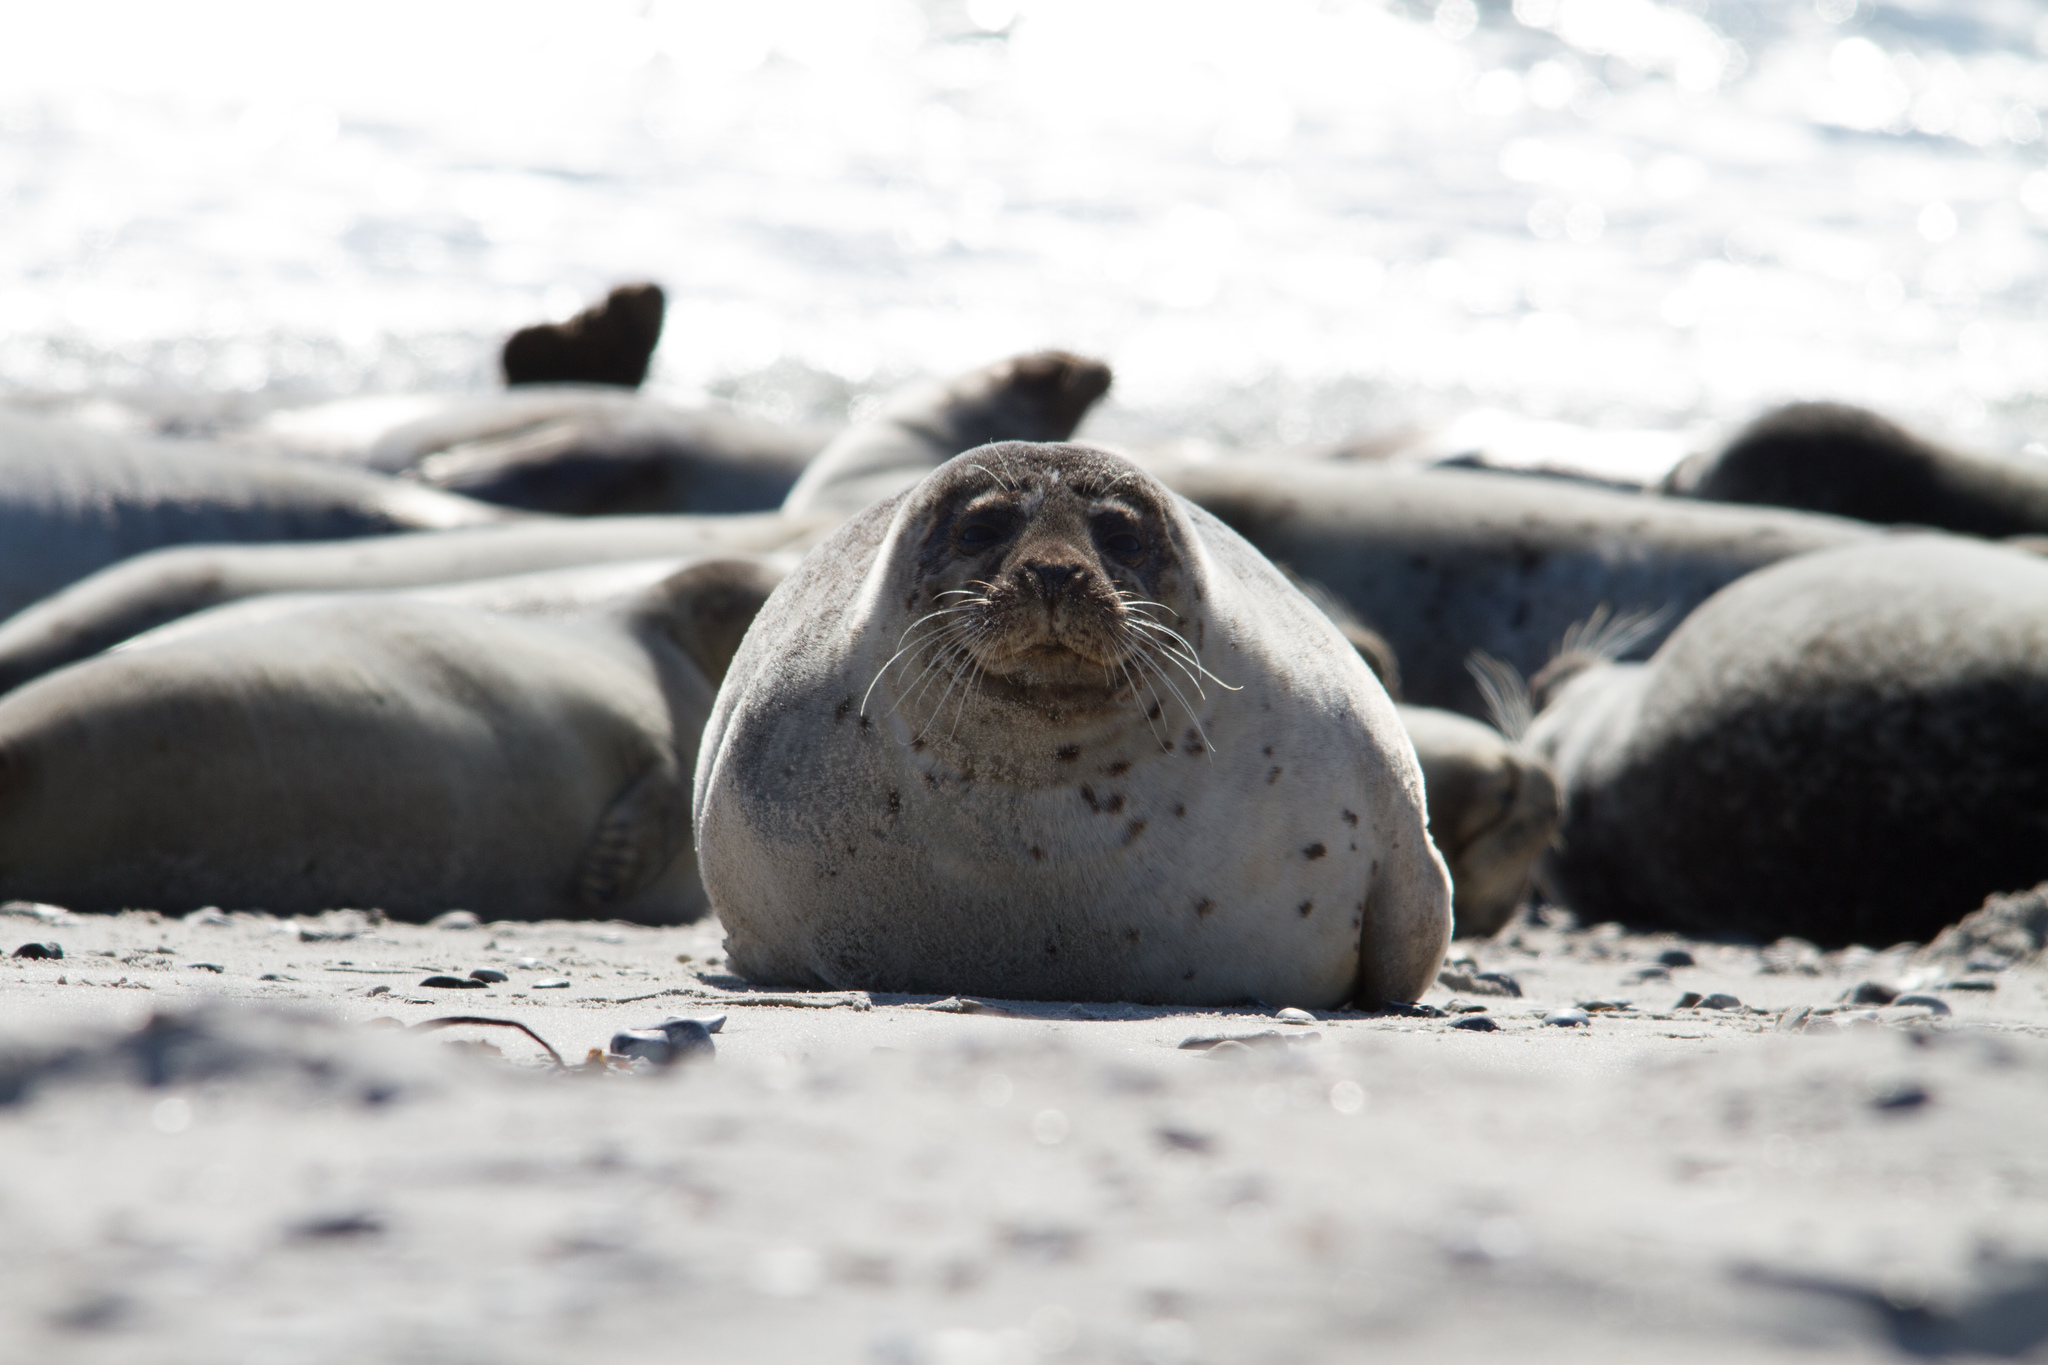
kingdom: Animalia
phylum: Chordata
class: Mammalia
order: Carnivora
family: Phocidae
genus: Phoca
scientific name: Phoca vitulina
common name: Harbor seal
